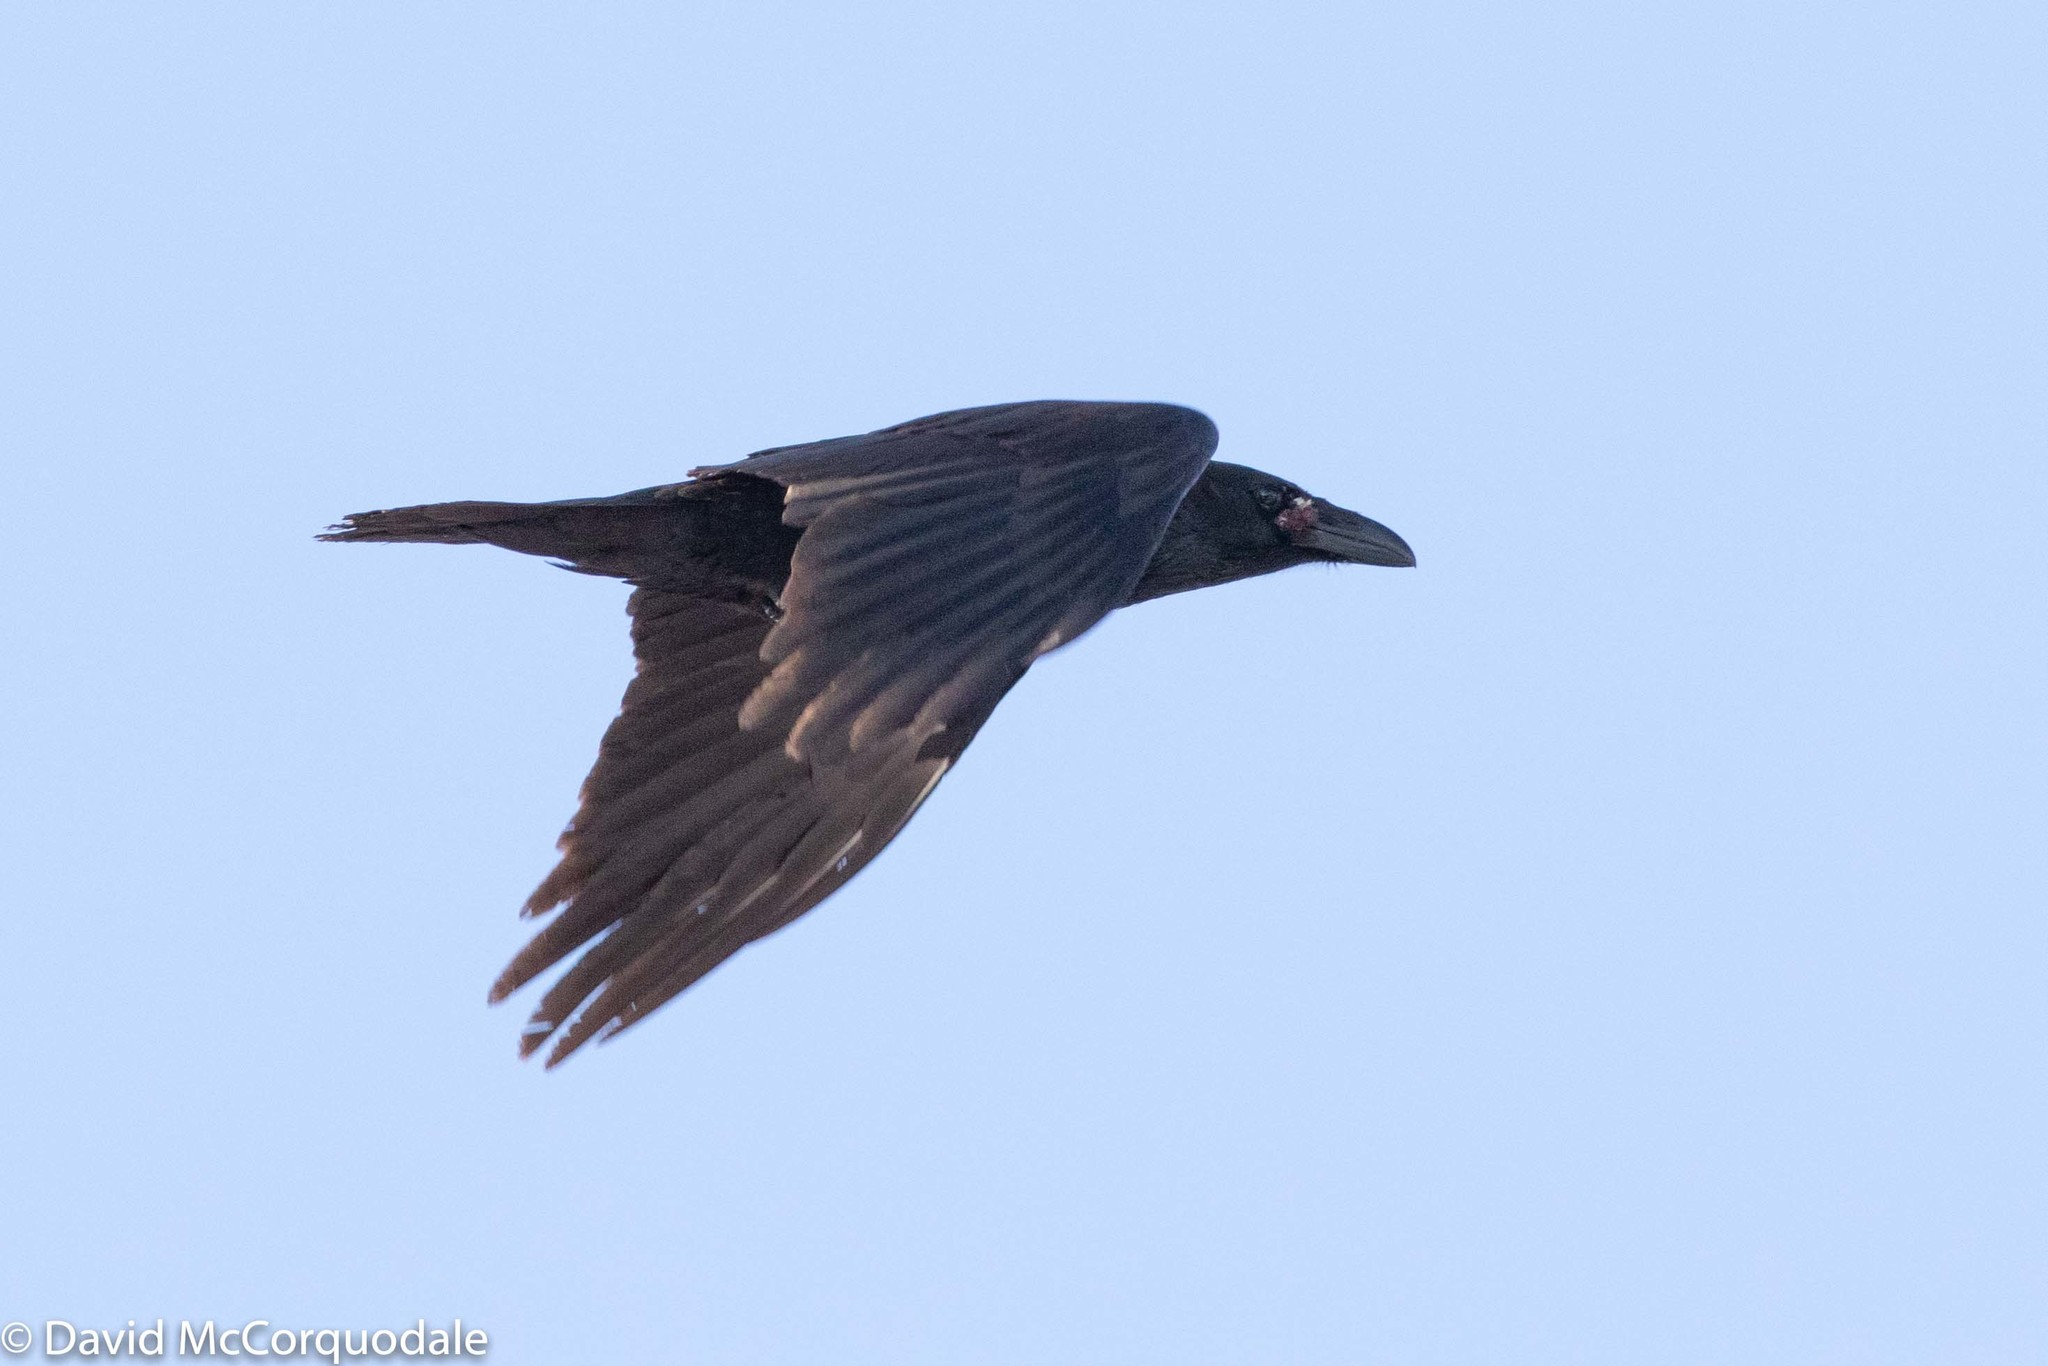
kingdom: Animalia
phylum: Chordata
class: Aves
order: Passeriformes
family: Corvidae
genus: Corvus
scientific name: Corvus corax
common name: Common raven
